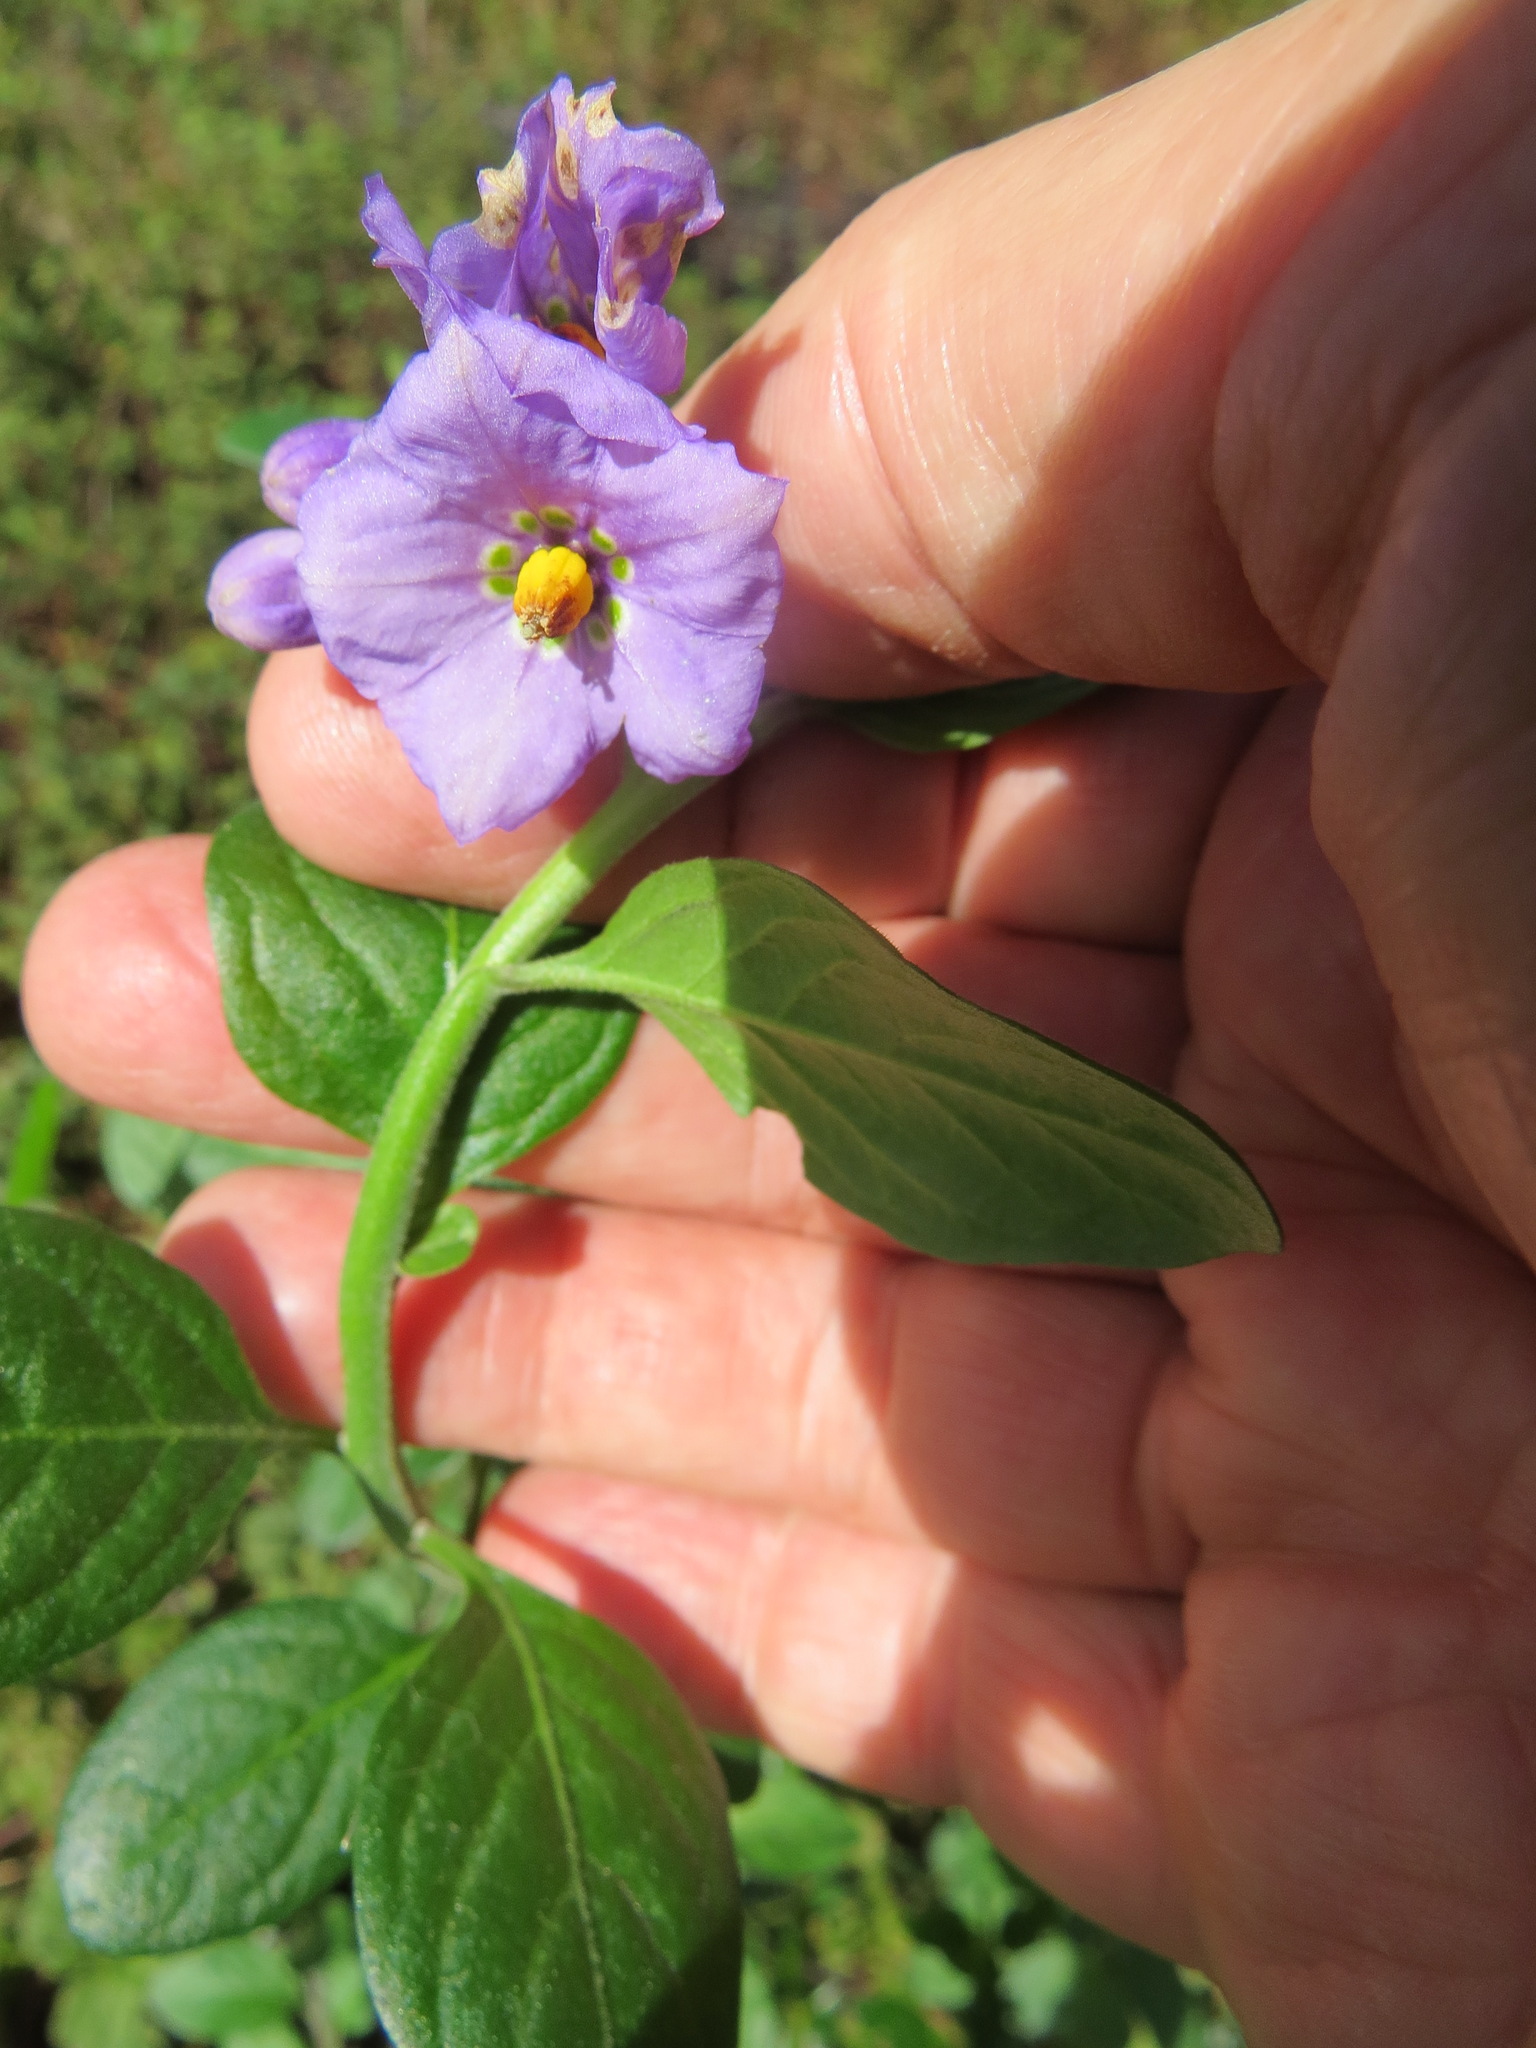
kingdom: Plantae
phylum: Tracheophyta
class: Magnoliopsida
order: Solanales
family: Solanaceae
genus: Solanum
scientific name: Solanum umbelliferum
